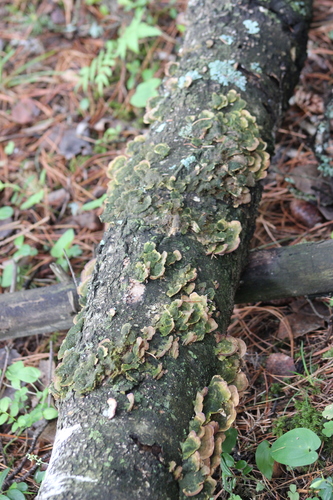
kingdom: Fungi
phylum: Basidiomycota
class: Agaricomycetes
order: Hymenochaetales
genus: Trichaptum
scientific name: Trichaptum biforme
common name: Violet-toothed polypore
